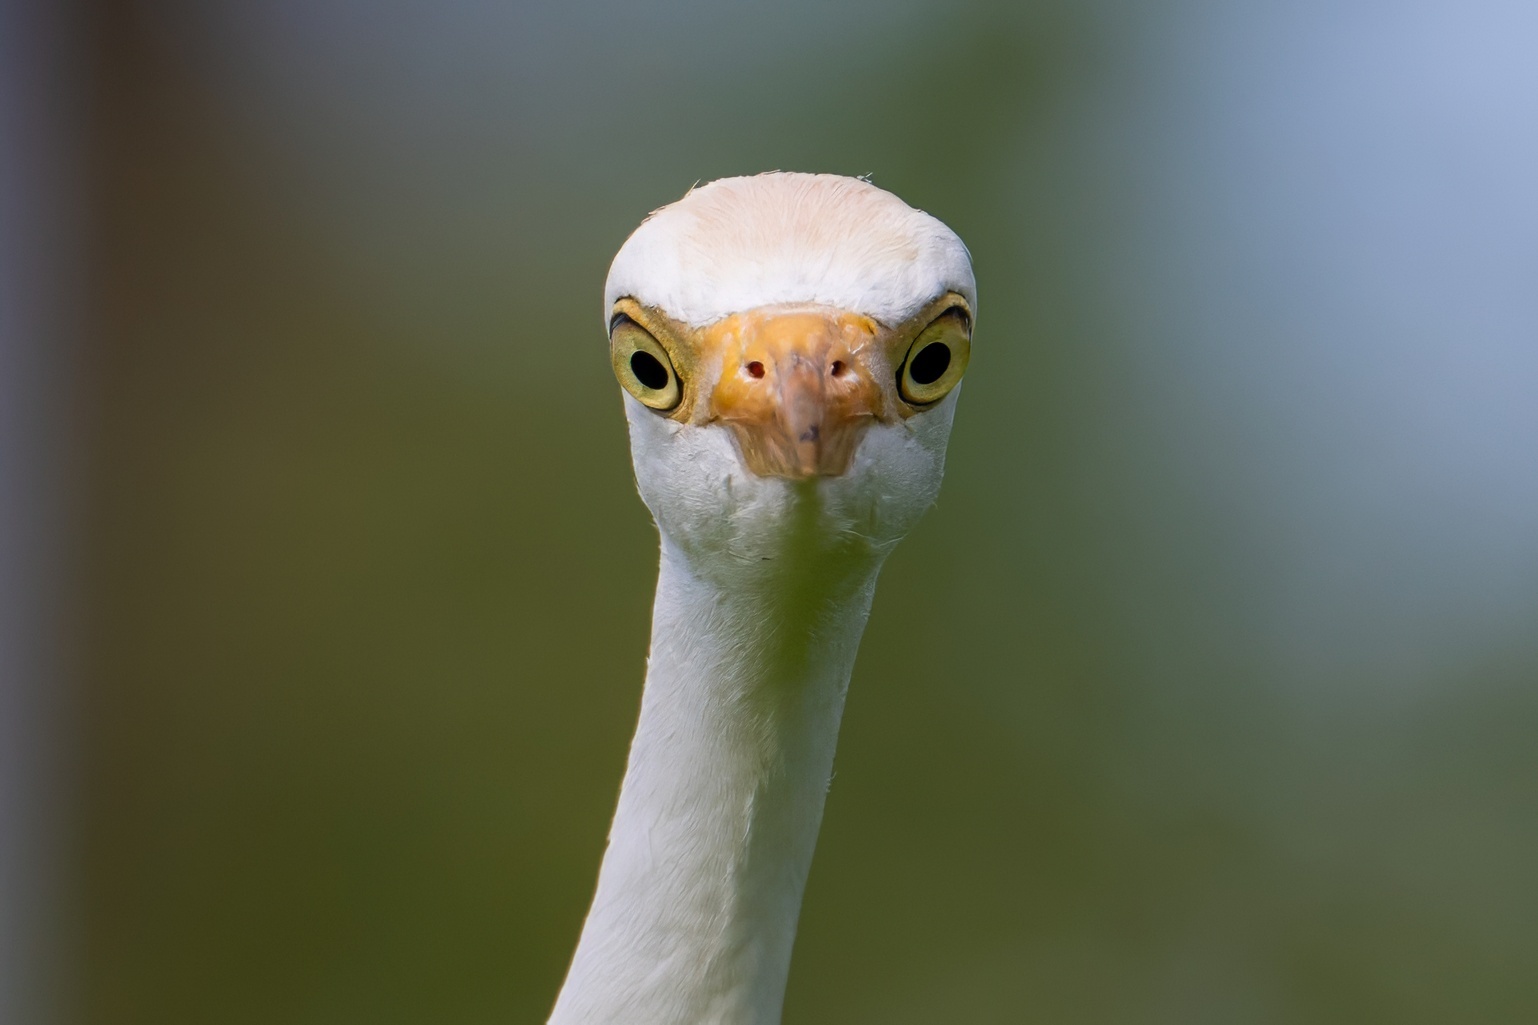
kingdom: Animalia
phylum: Chordata
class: Aves
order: Pelecaniformes
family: Ardeidae
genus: Bubulcus
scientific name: Bubulcus ibis
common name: Cattle egret
